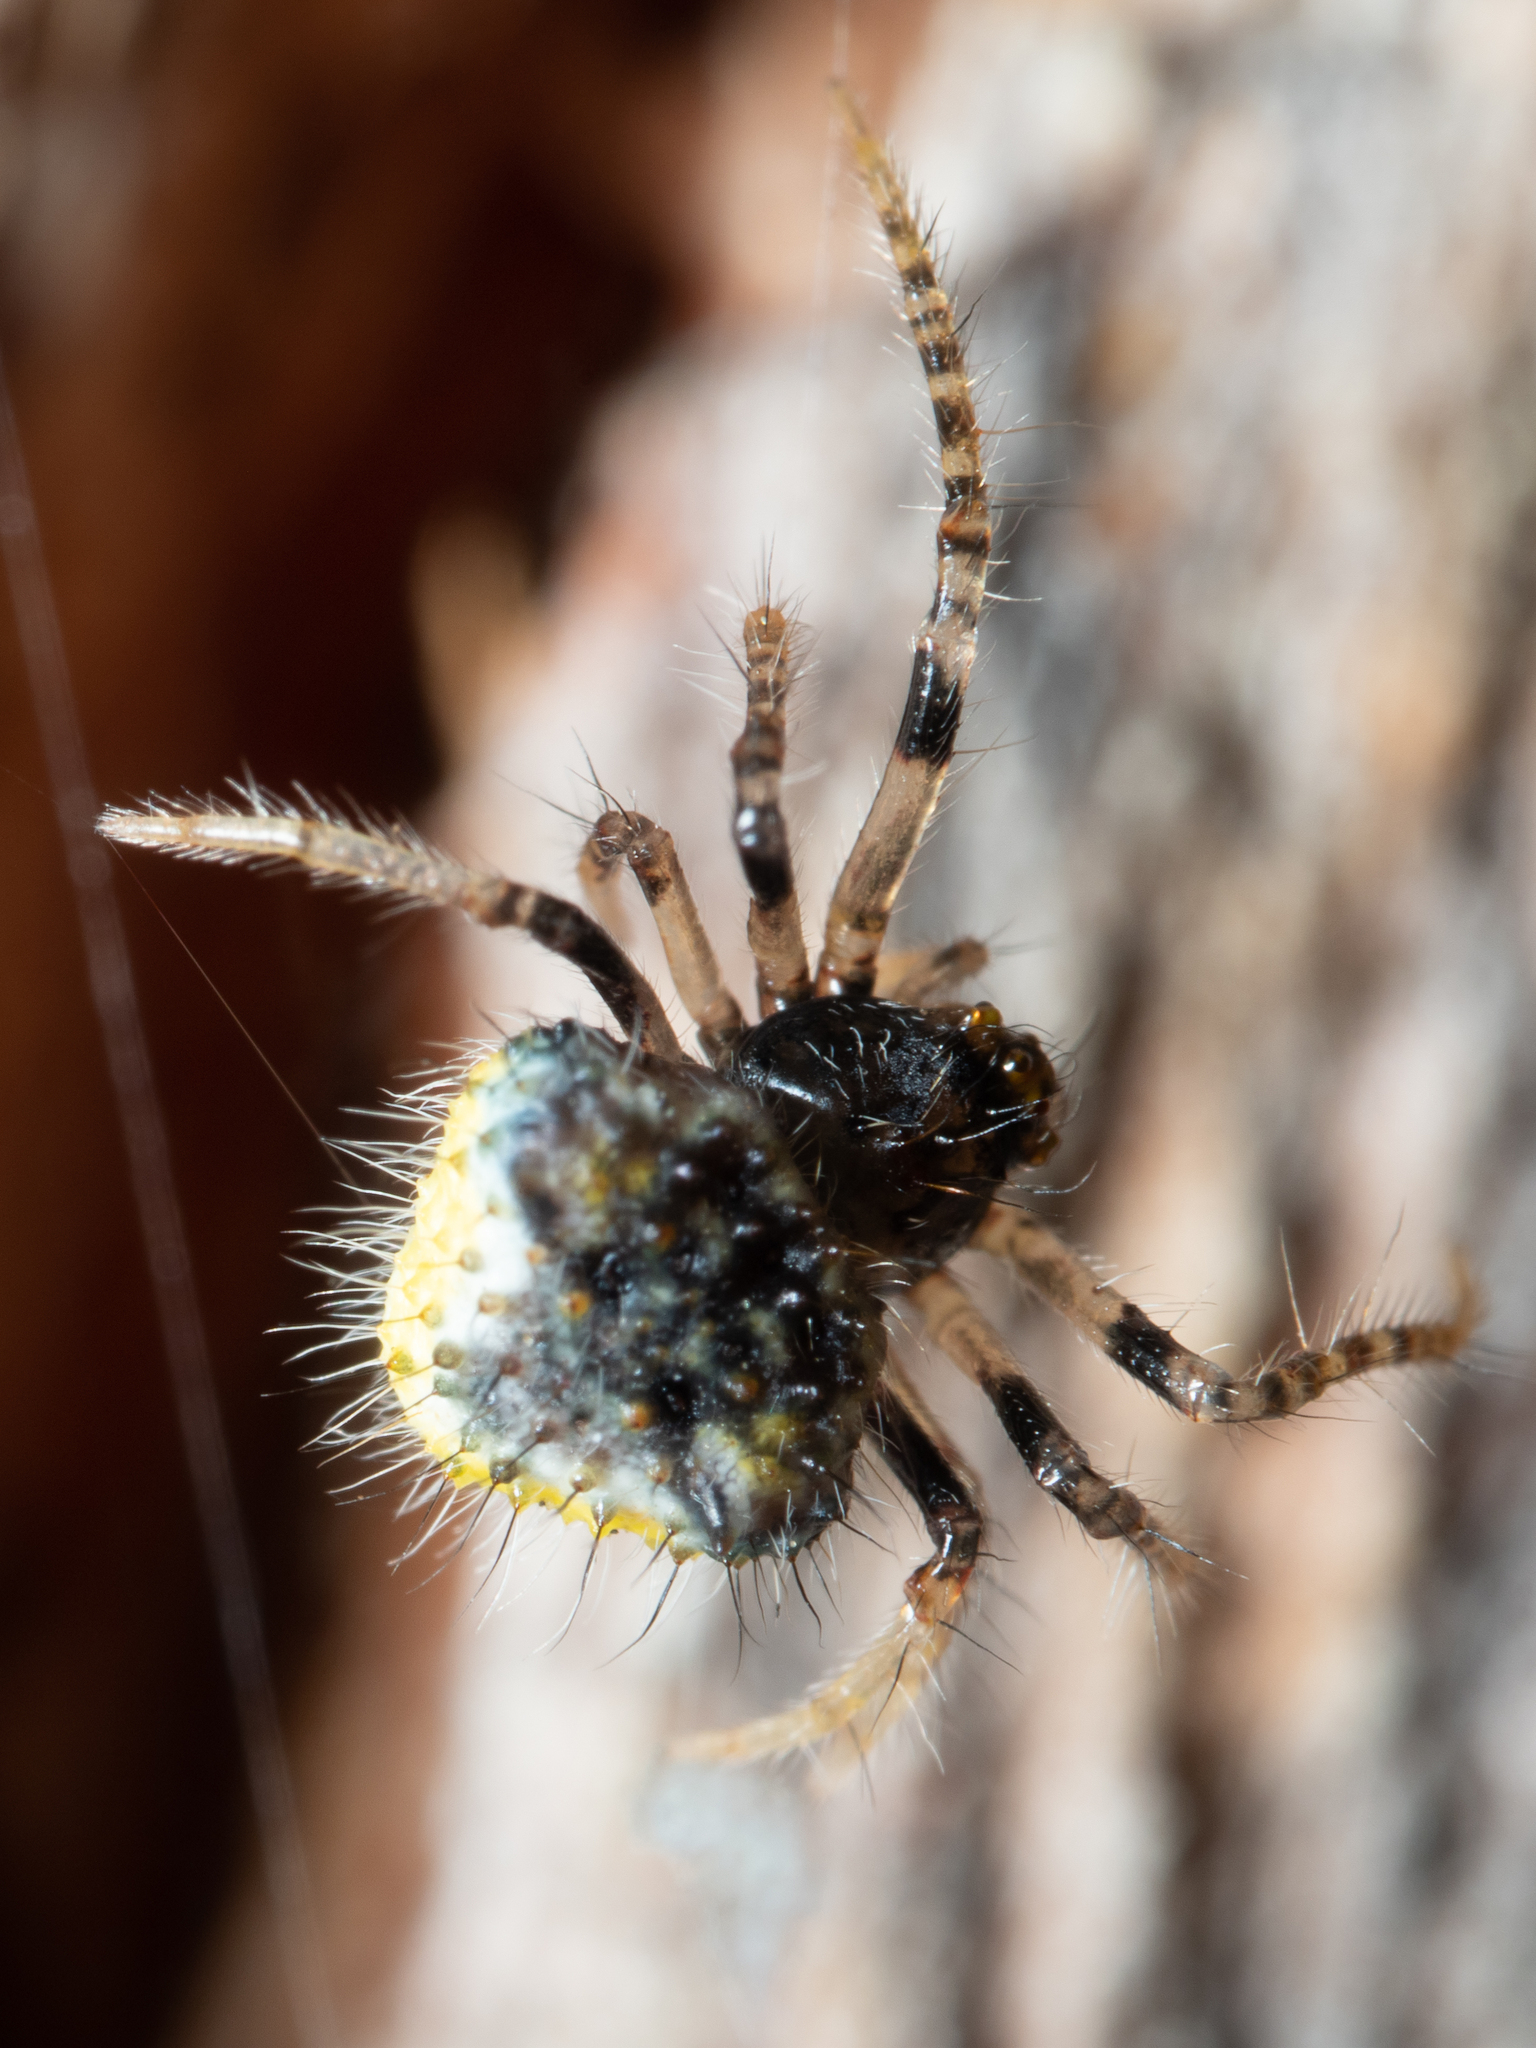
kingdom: Animalia
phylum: Arthropoda
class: Arachnida
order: Araneae
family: Araneidae
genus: Poecilopachys
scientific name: Poecilopachys australasia
